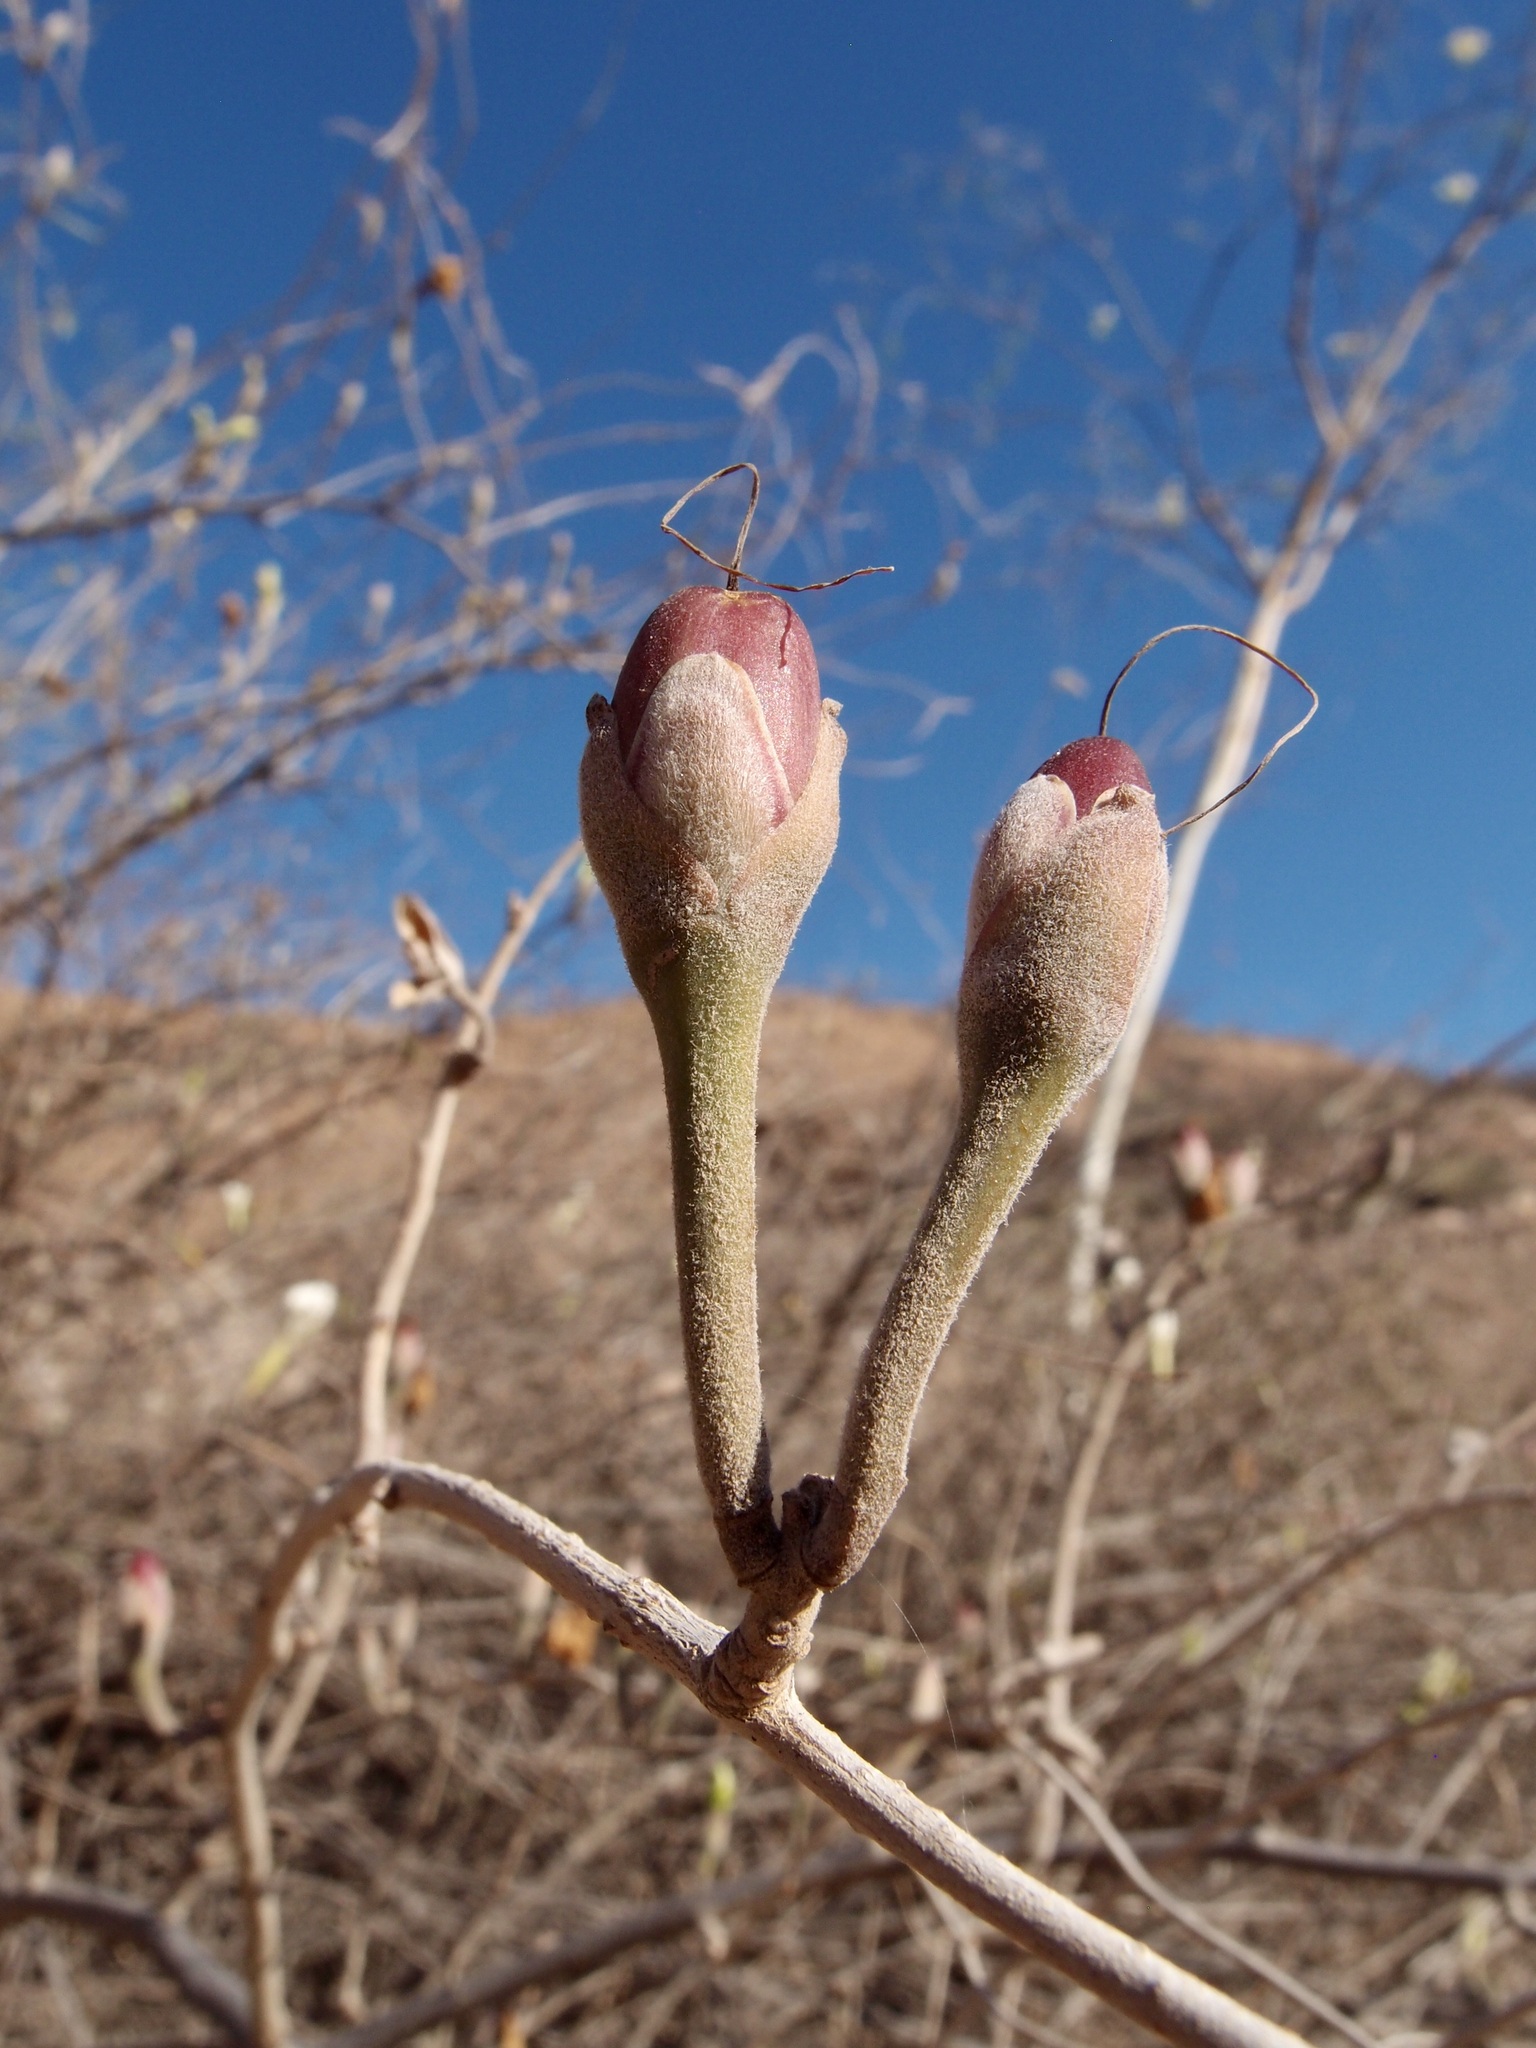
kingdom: Plantae
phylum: Tracheophyta
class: Magnoliopsida
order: Solanales
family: Convolvulaceae
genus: Ipomoea
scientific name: Ipomoea seaania
